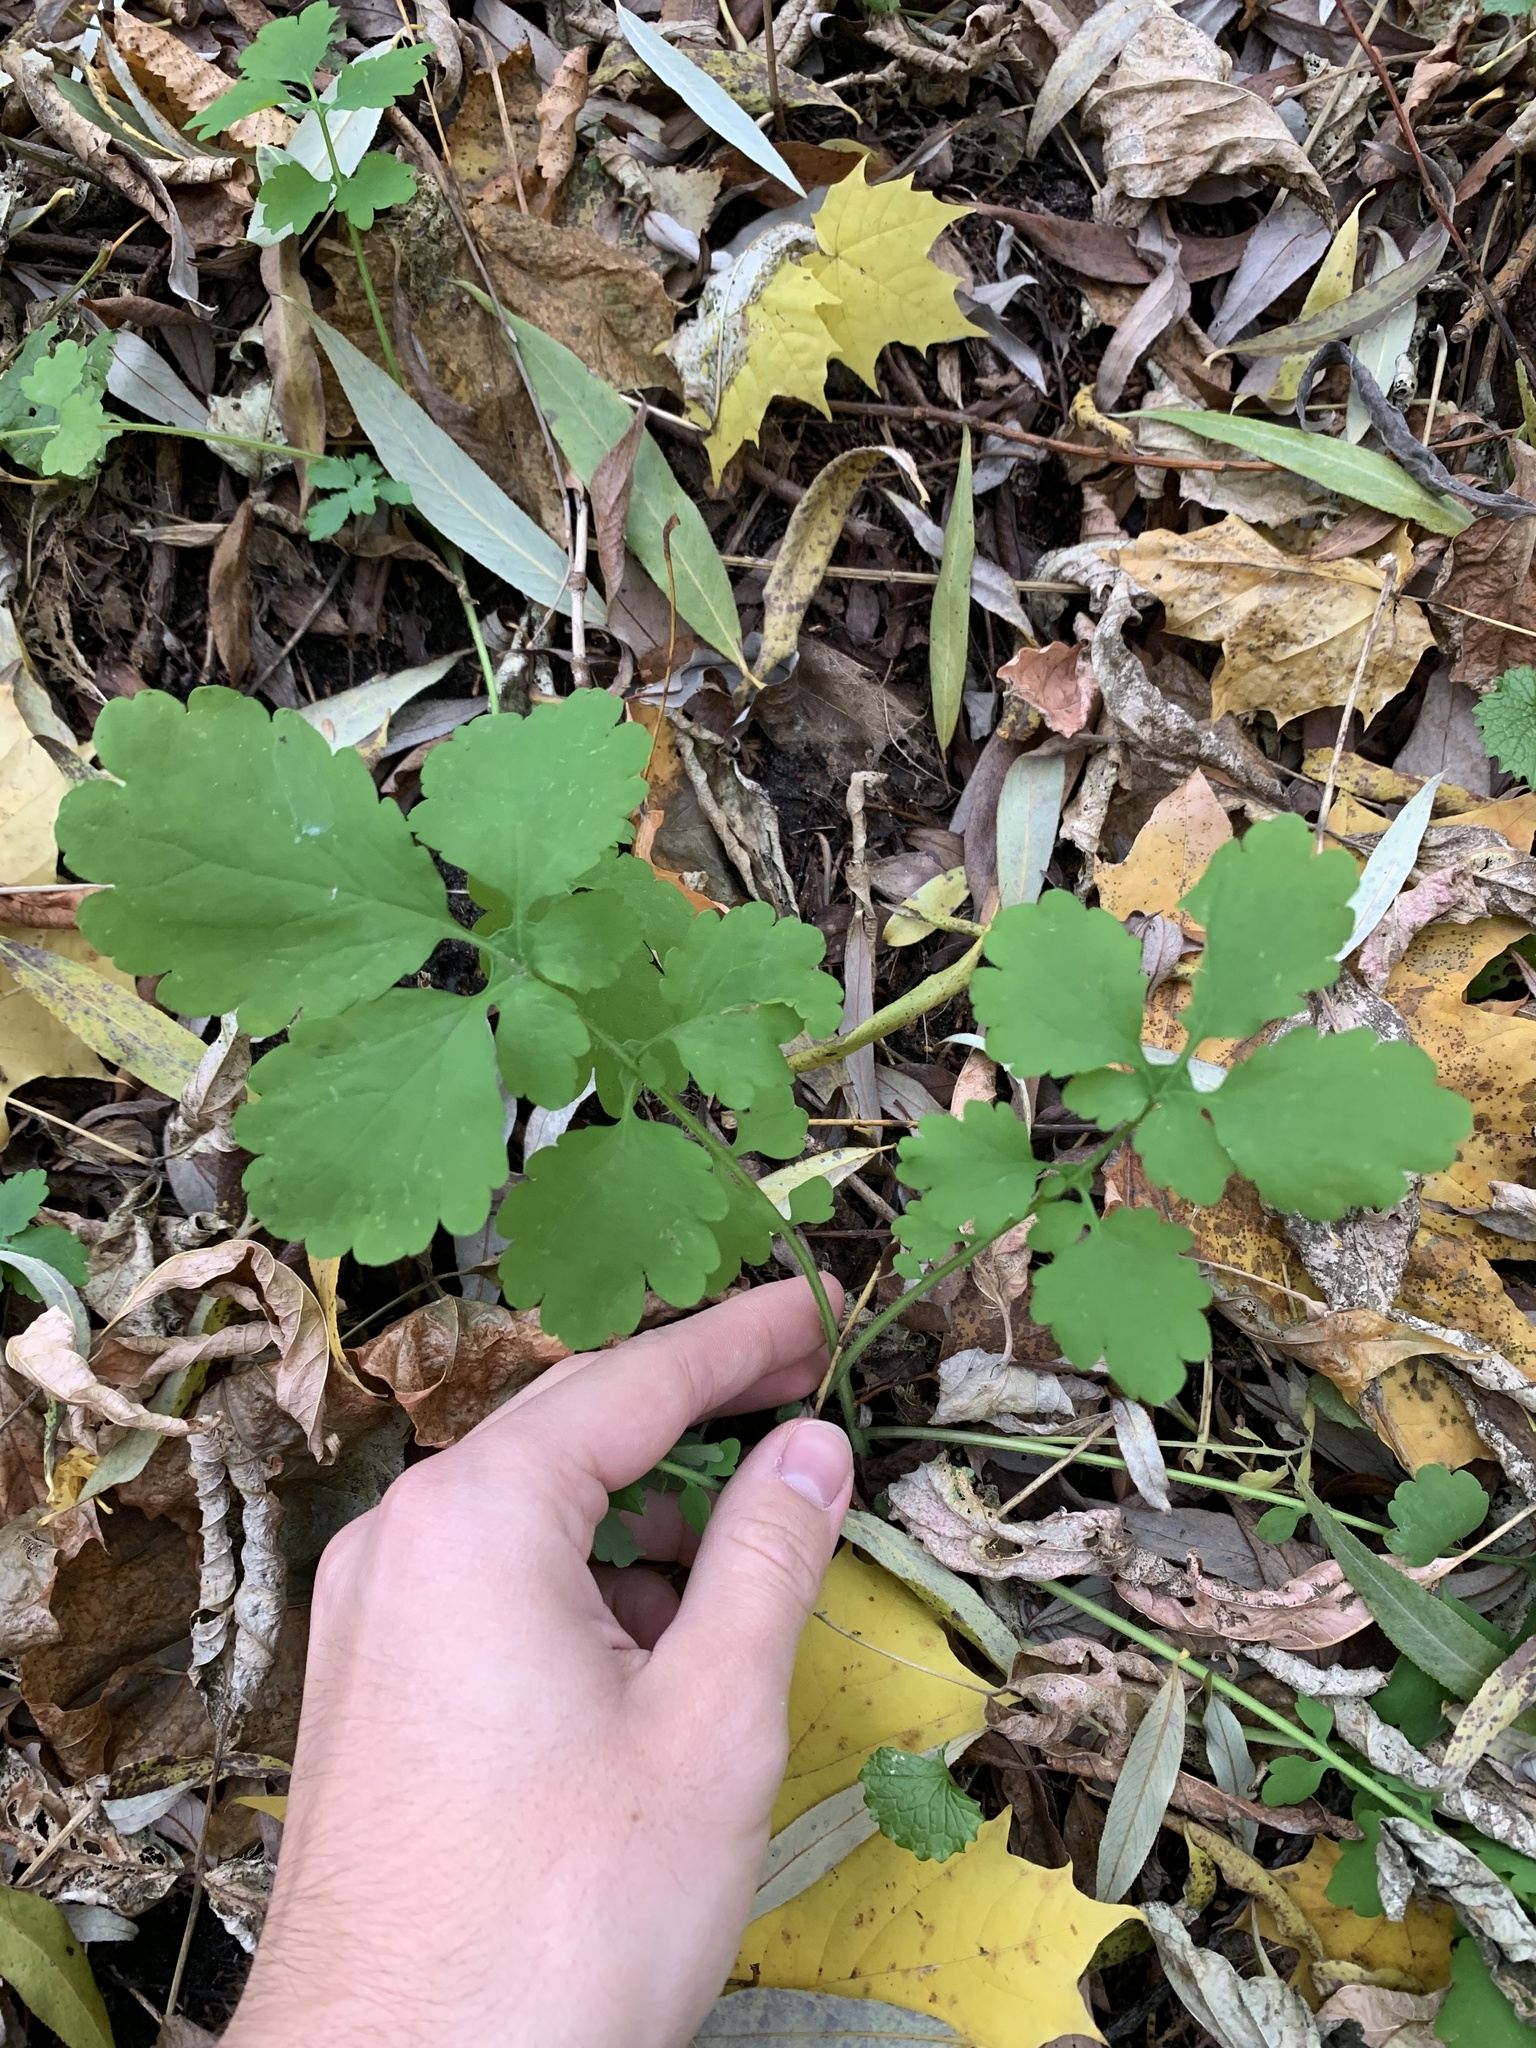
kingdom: Plantae
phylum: Tracheophyta
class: Magnoliopsida
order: Ranunculales
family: Papaveraceae
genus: Chelidonium
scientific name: Chelidonium majus
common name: Greater celandine
